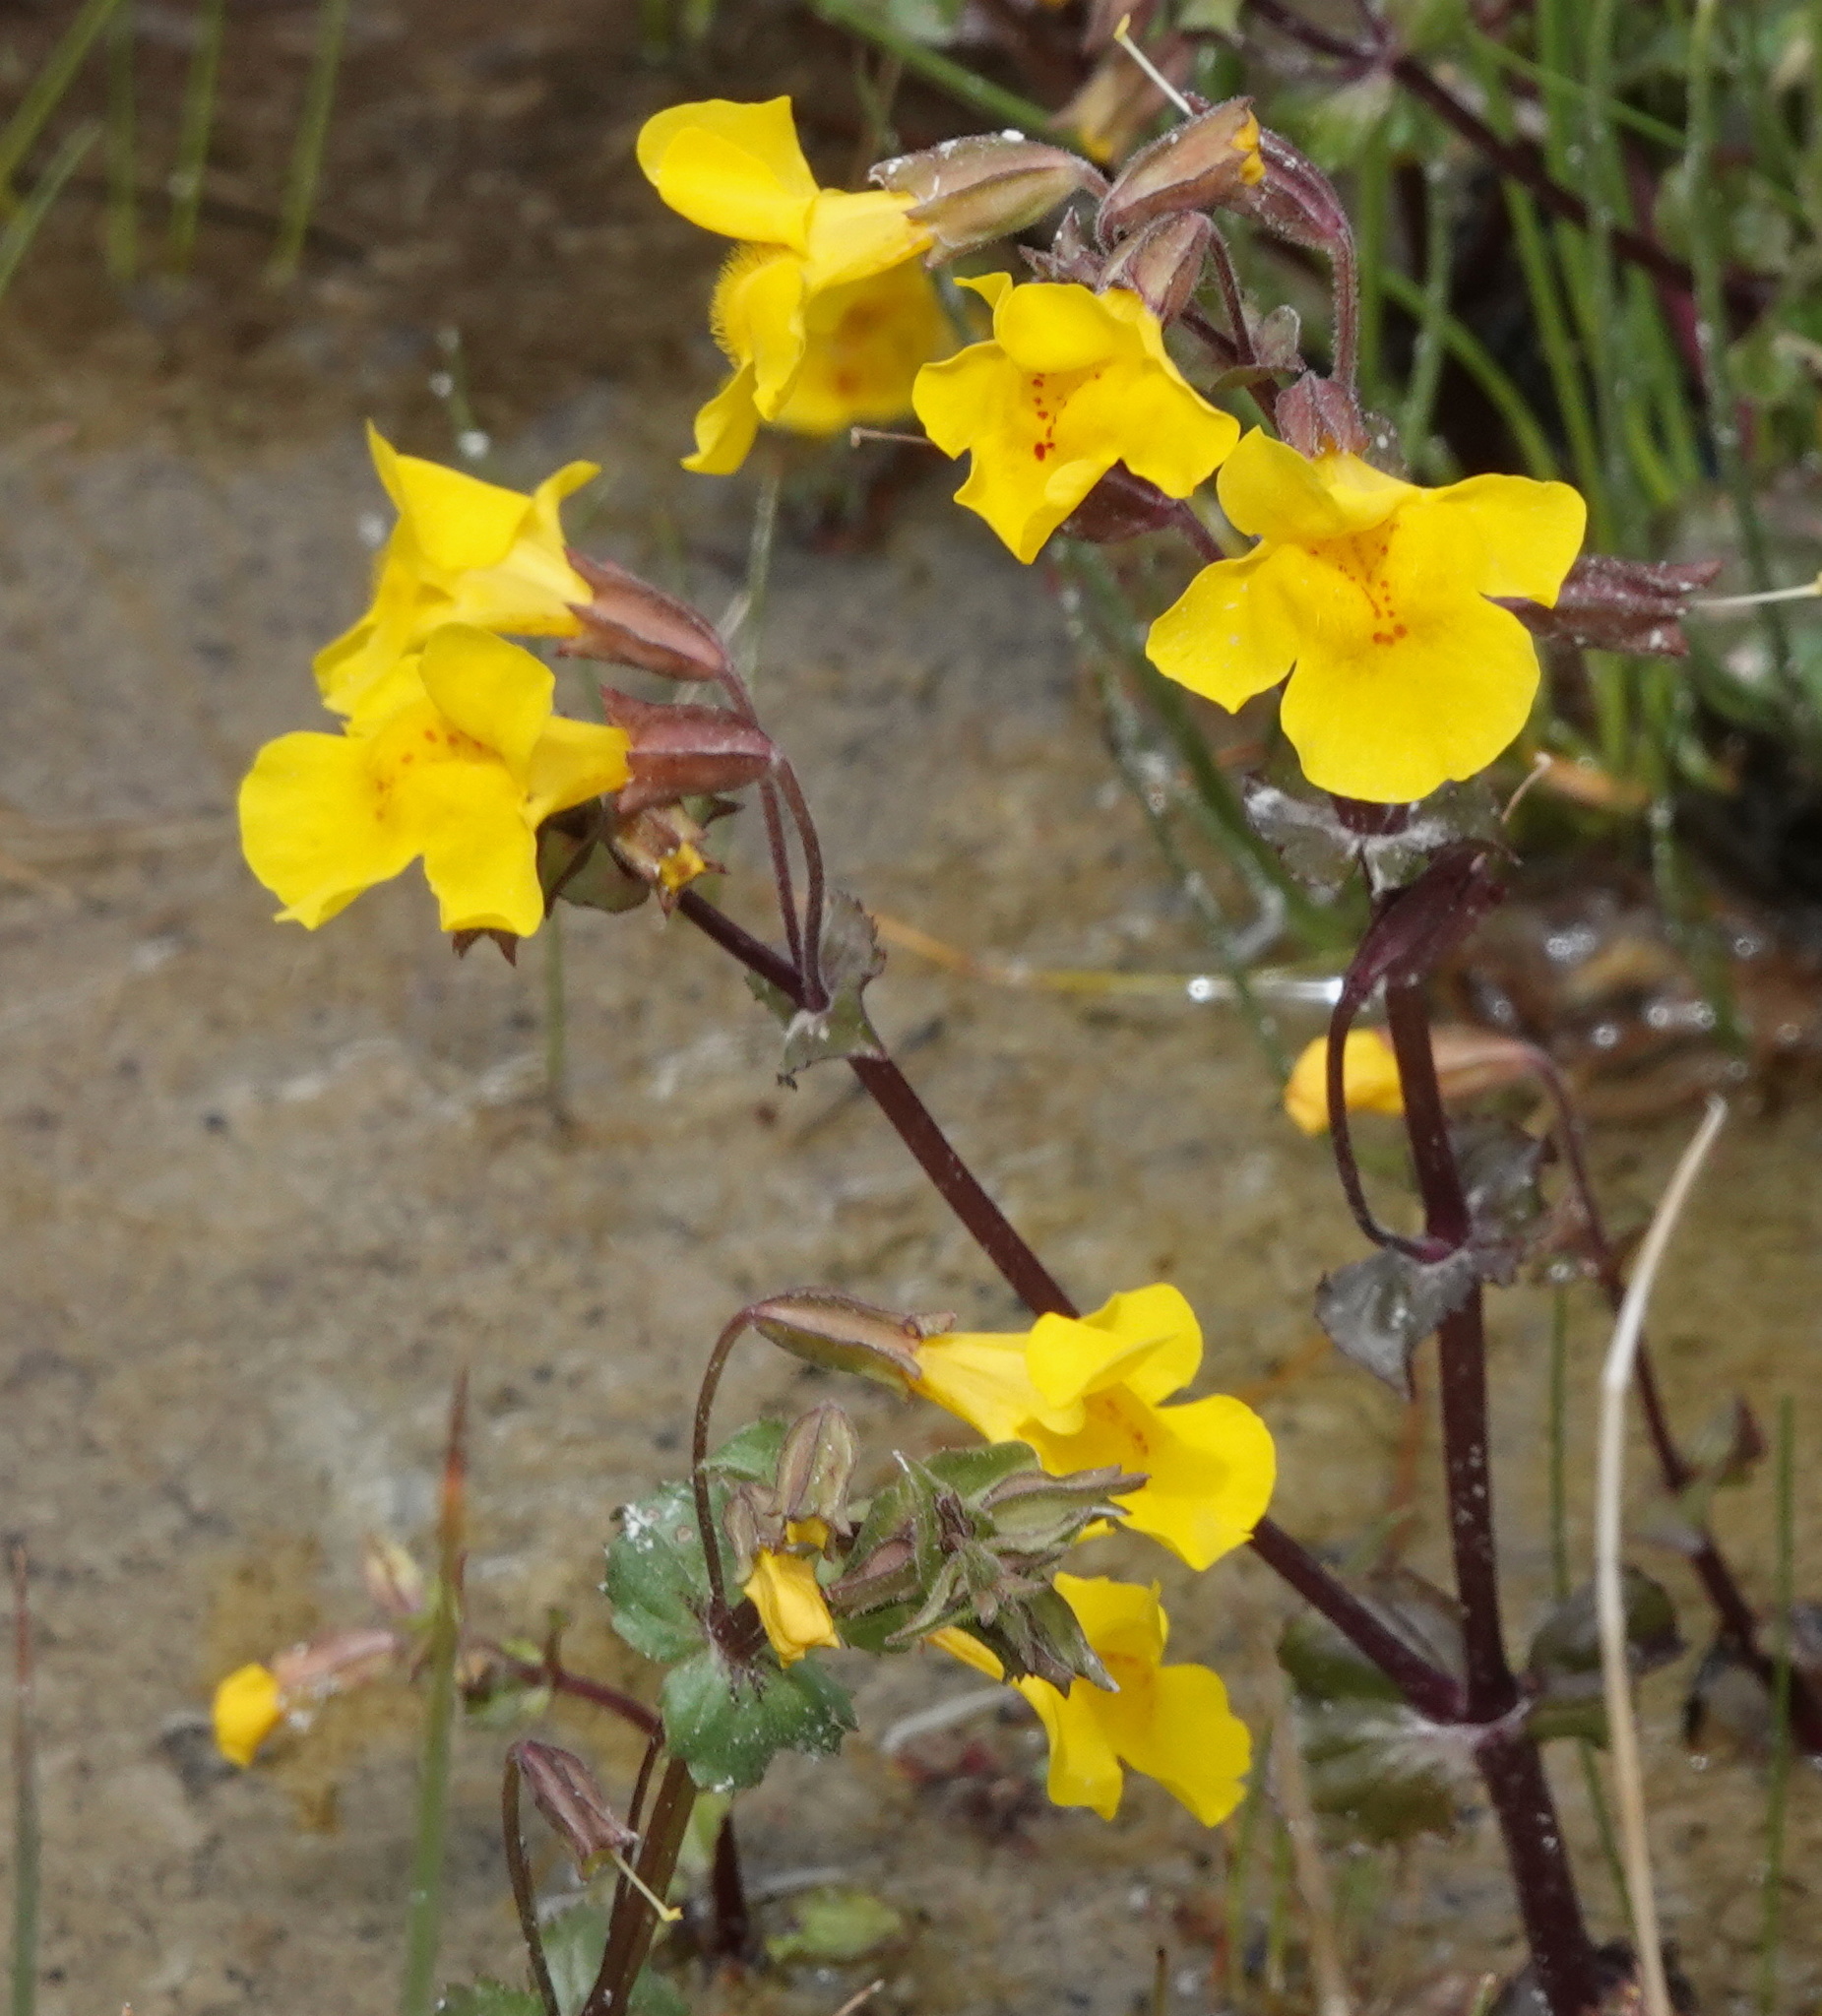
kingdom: Plantae
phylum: Tracheophyta
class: Magnoliopsida
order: Lamiales
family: Phrymaceae
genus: Erythranthe
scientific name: Erythranthe guttata
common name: Monkeyflower
